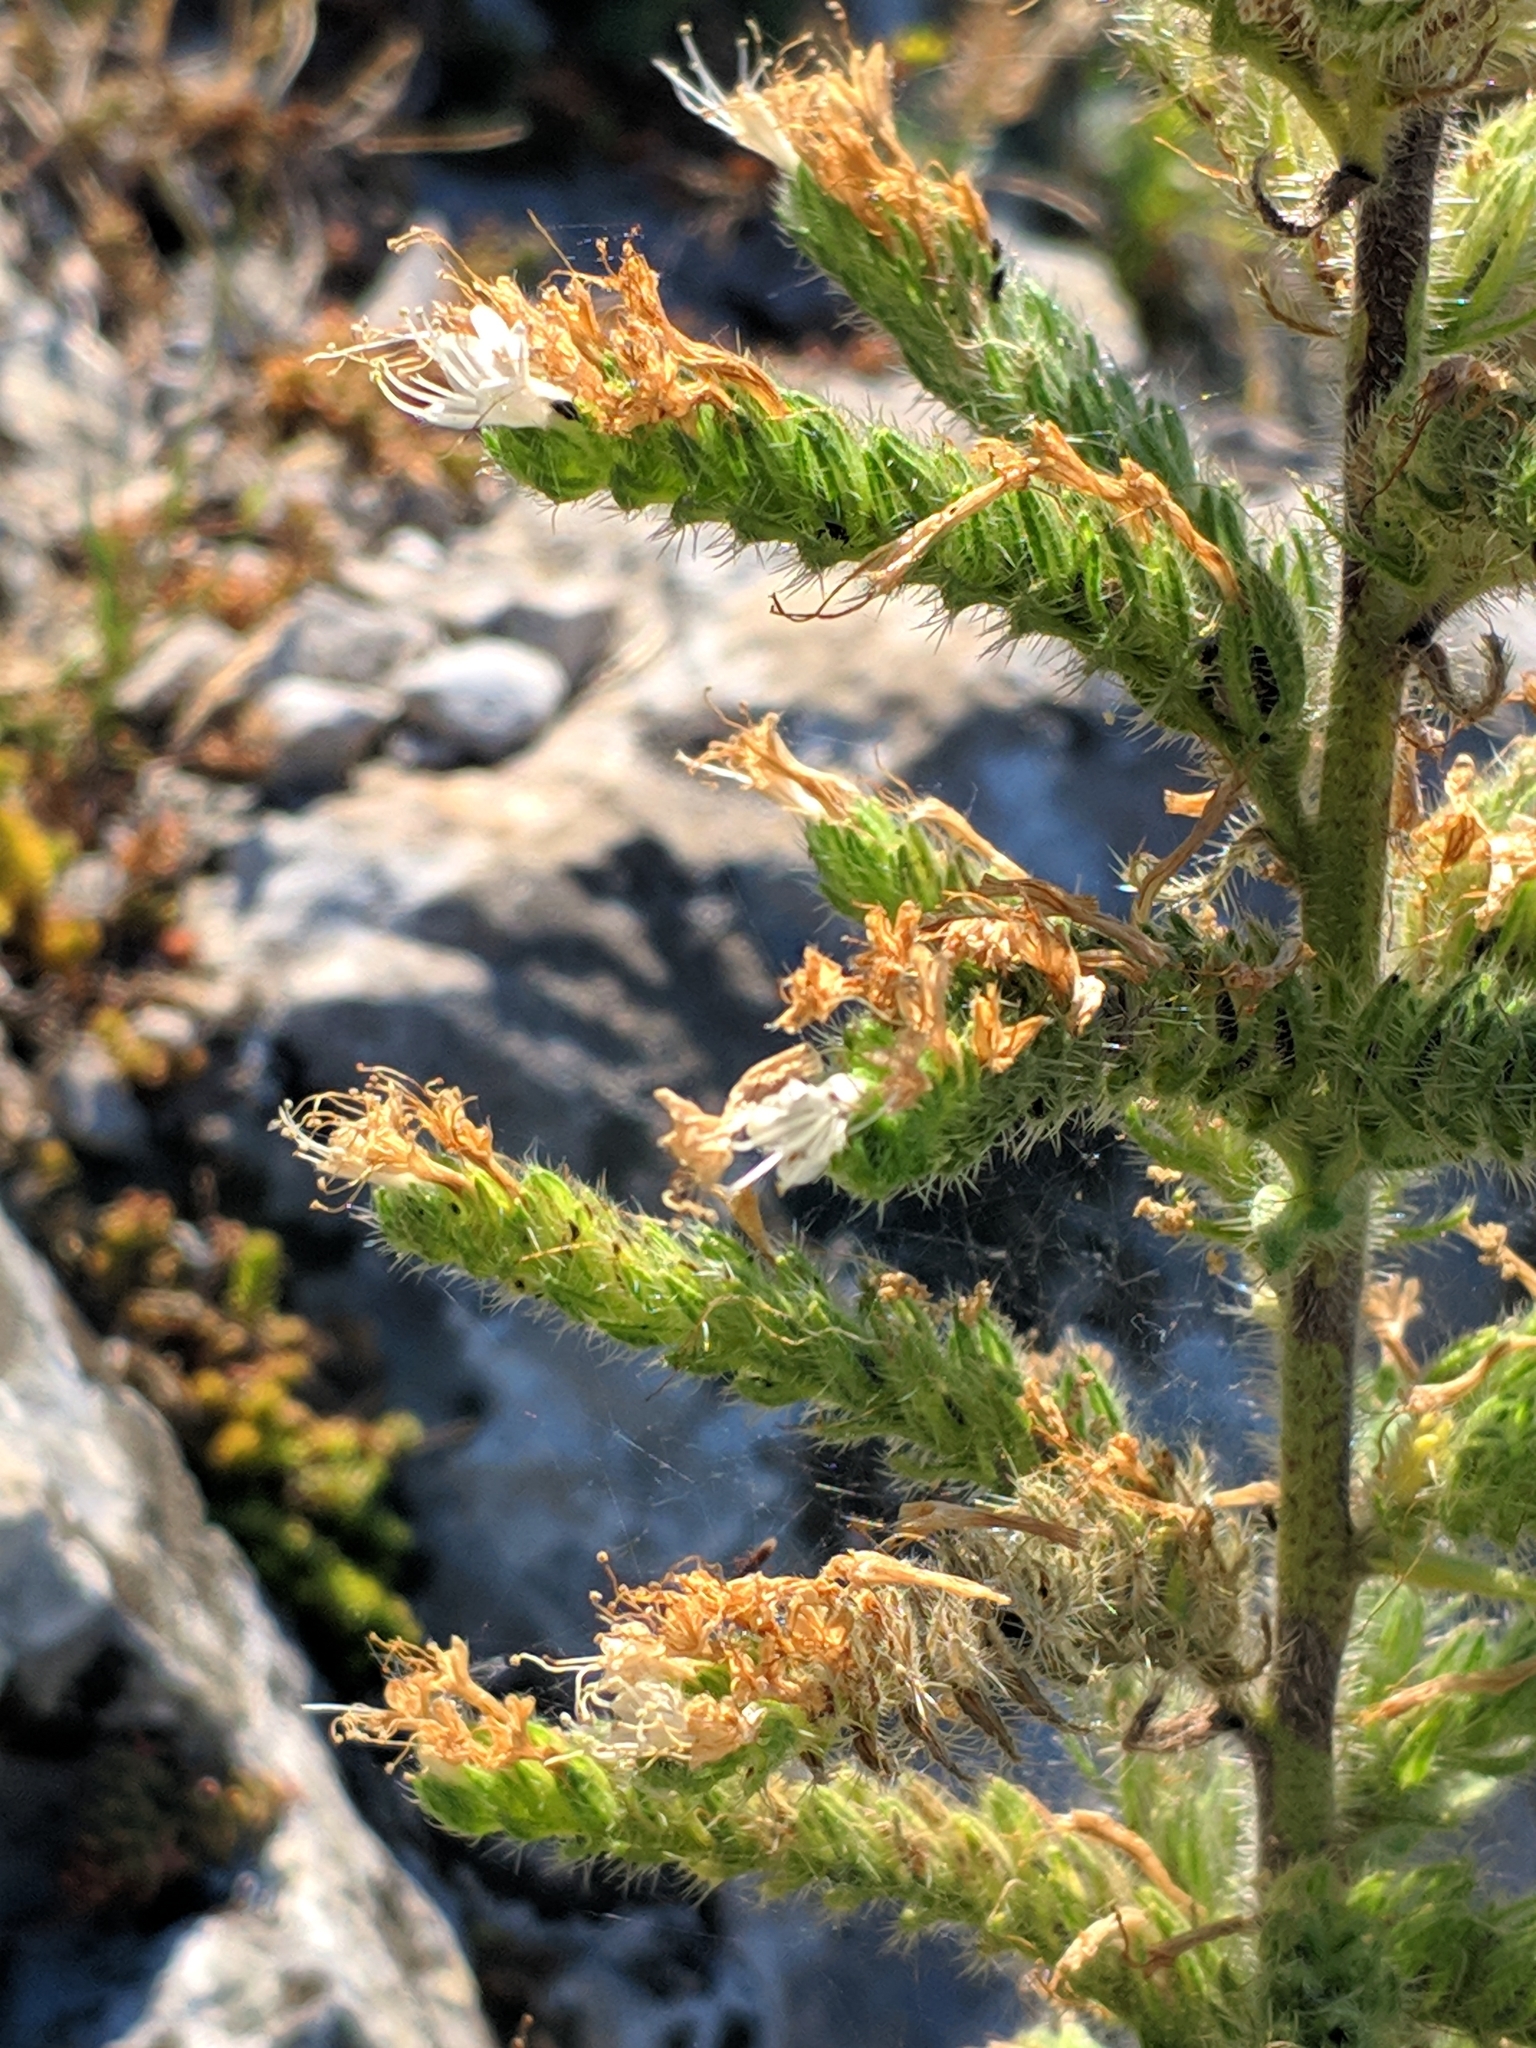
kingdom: Plantae
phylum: Tracheophyta
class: Magnoliopsida
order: Boraginales
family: Boraginaceae
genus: Echium
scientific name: Echium italicum
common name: Italian viper's bugloss
